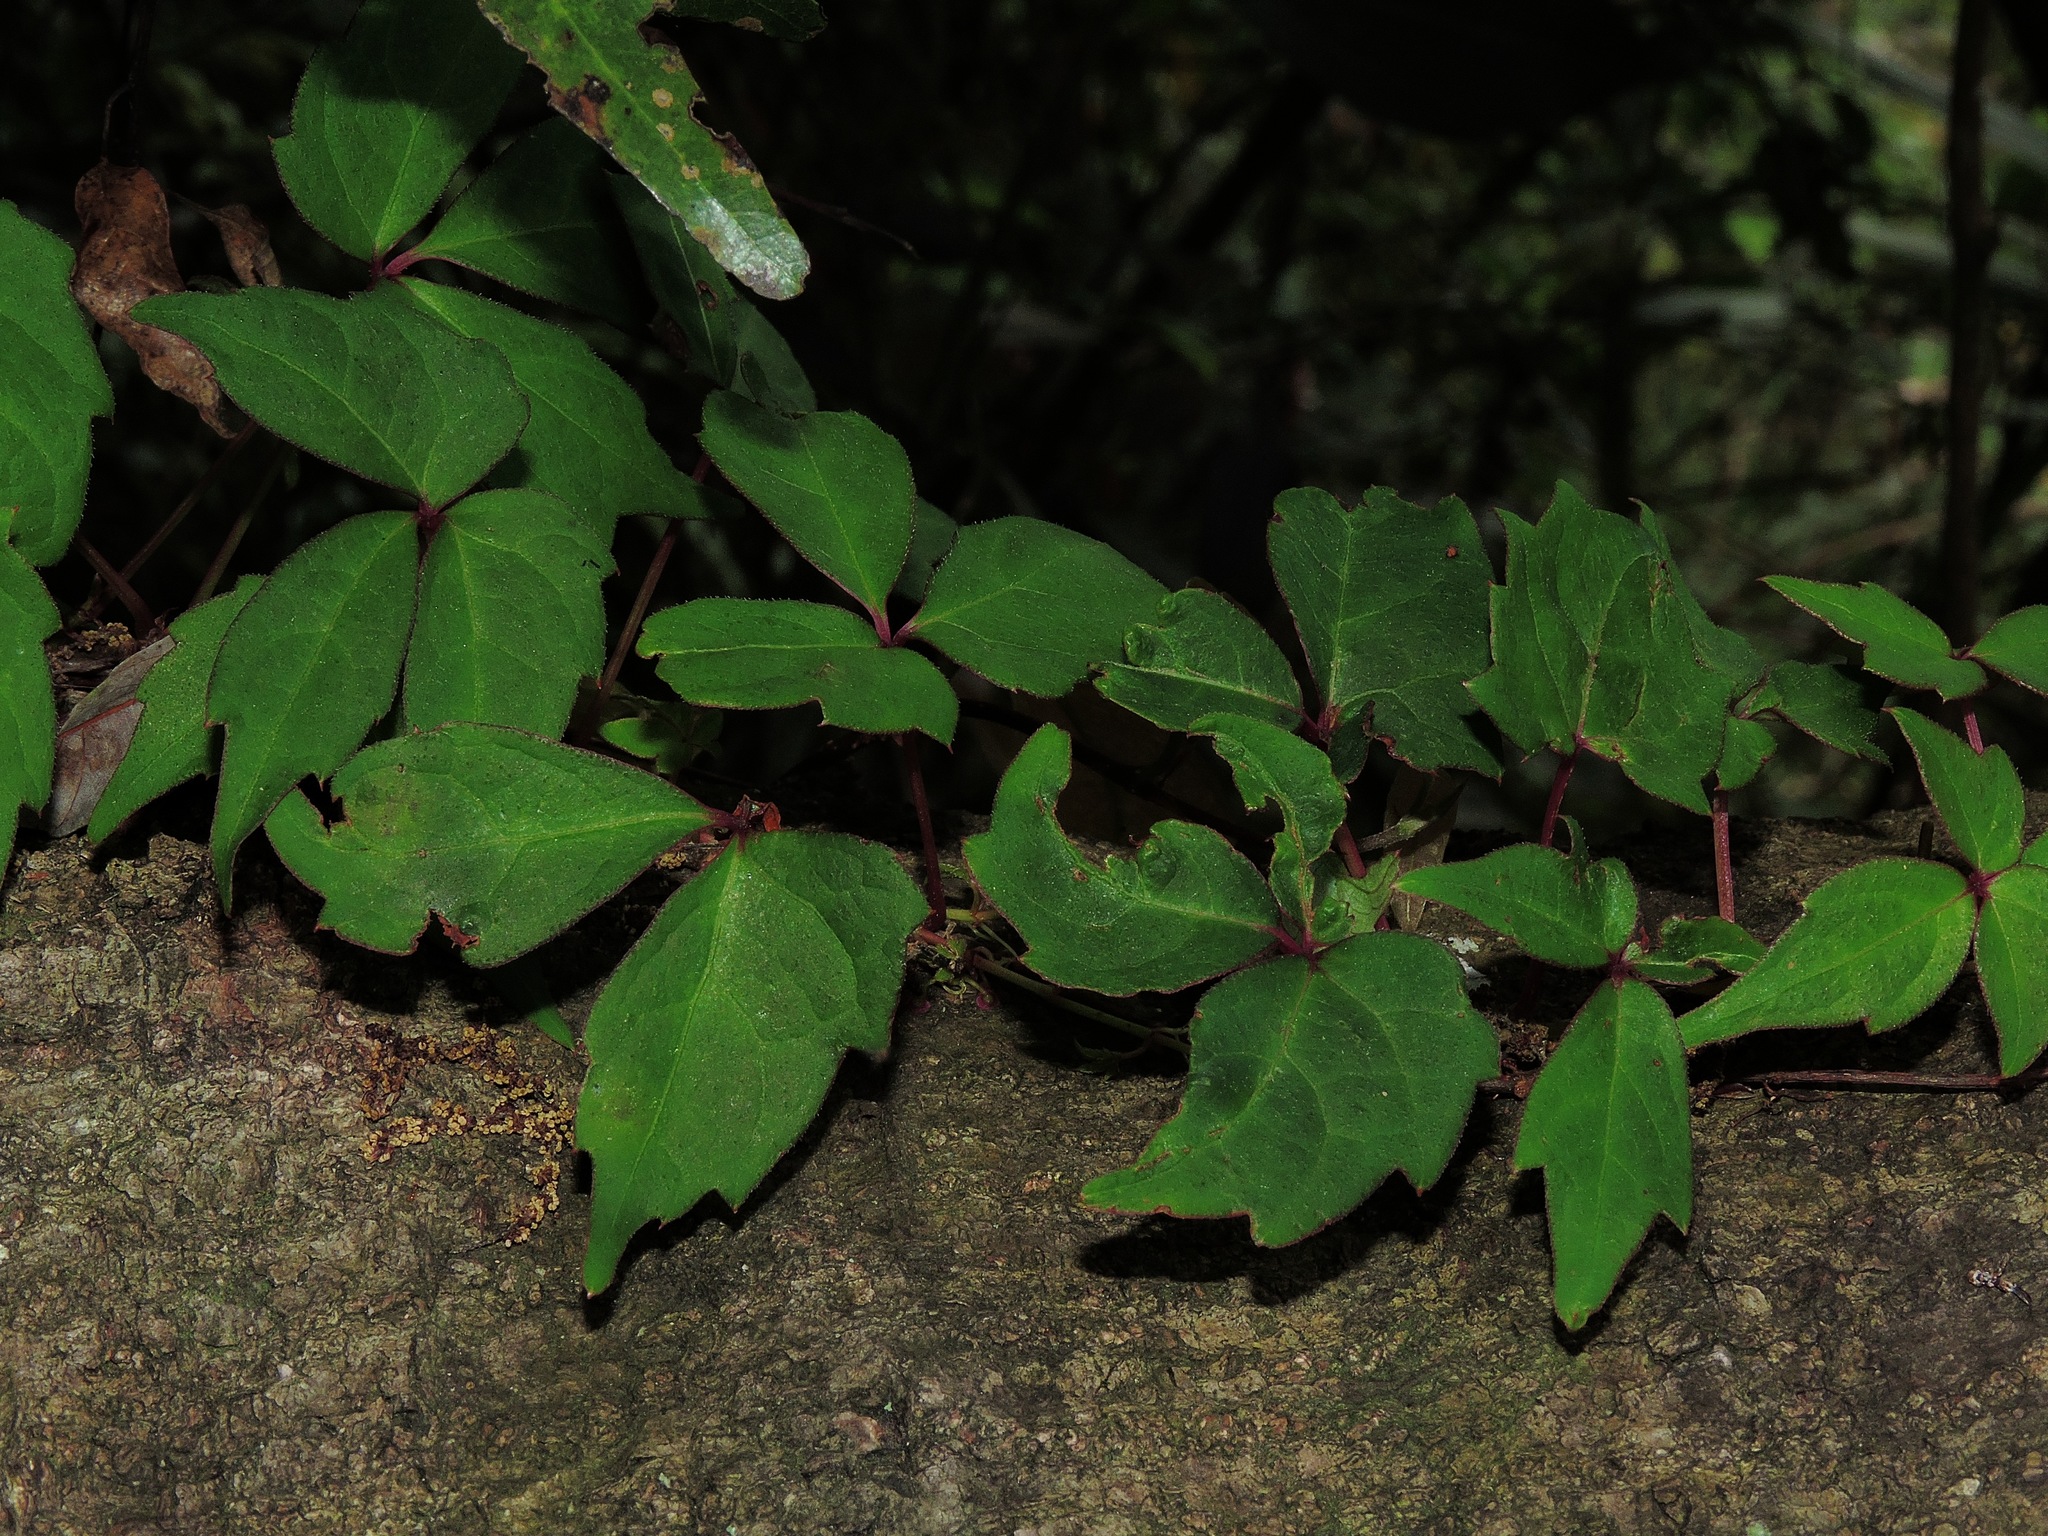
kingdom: Plantae
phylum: Tracheophyta
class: Magnoliopsida
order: Vitales
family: Vitaceae
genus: Parthenocissus
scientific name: Parthenocissus tricuspidata
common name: Boston ivy
